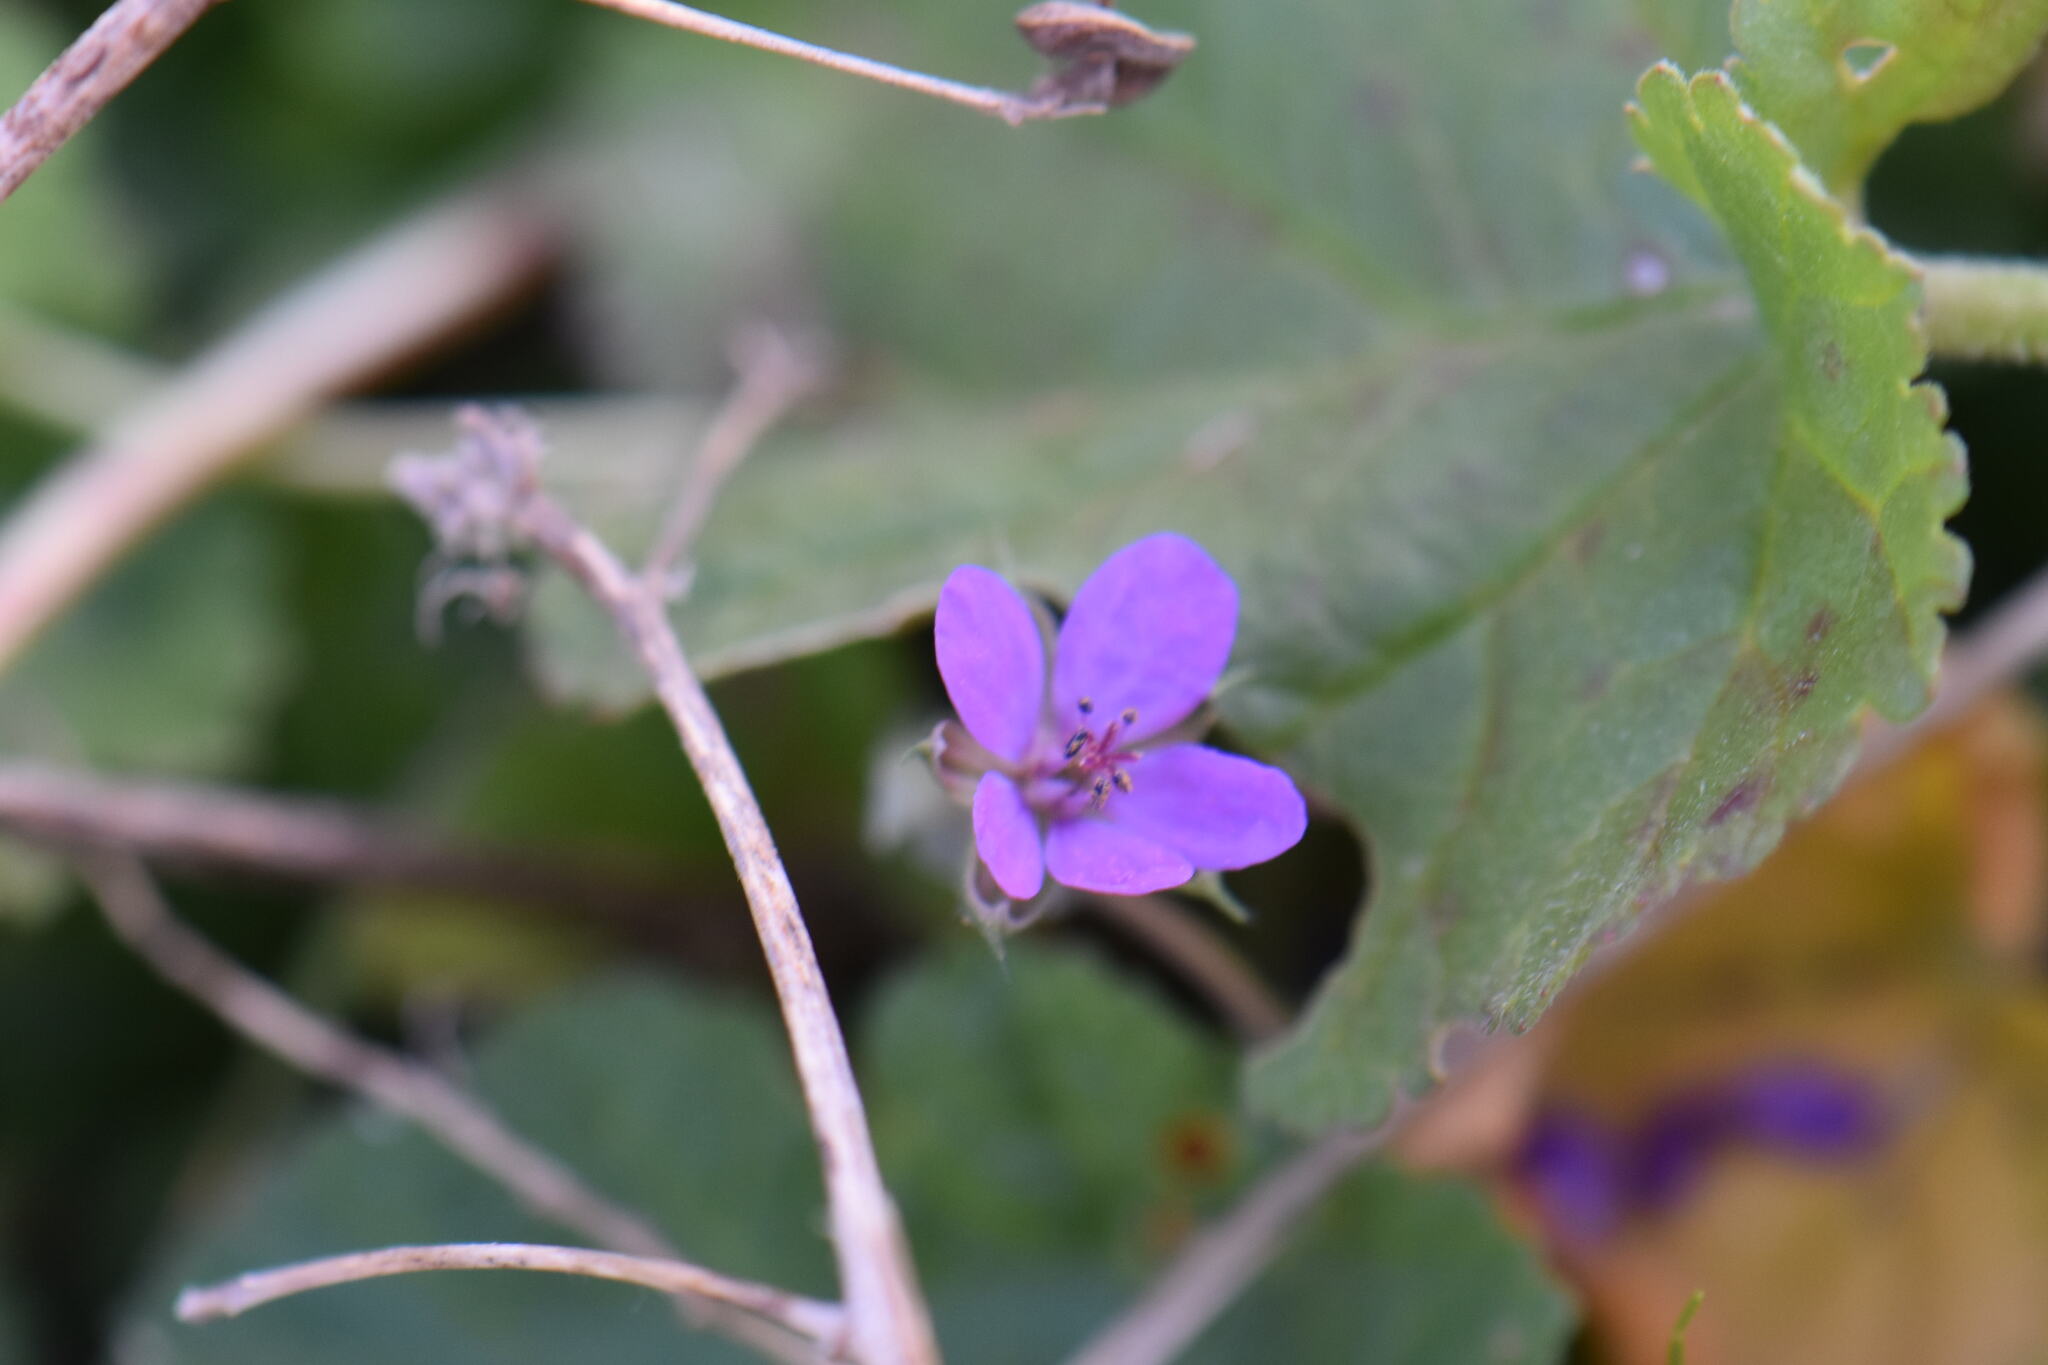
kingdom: Plantae
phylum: Tracheophyta
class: Magnoliopsida
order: Geraniales
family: Geraniaceae
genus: Erodium
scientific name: Erodium malacoides
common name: Soft stork's-bill
